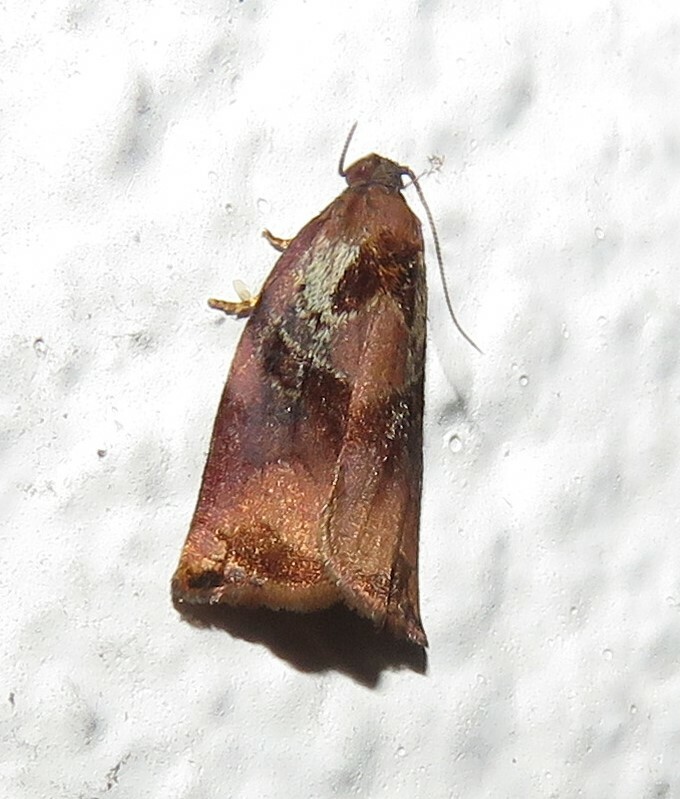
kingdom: Animalia
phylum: Arthropoda
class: Insecta
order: Lepidoptera
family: Tortricidae
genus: Archips
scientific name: Archips podana
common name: Large fruit-tree tortrix
